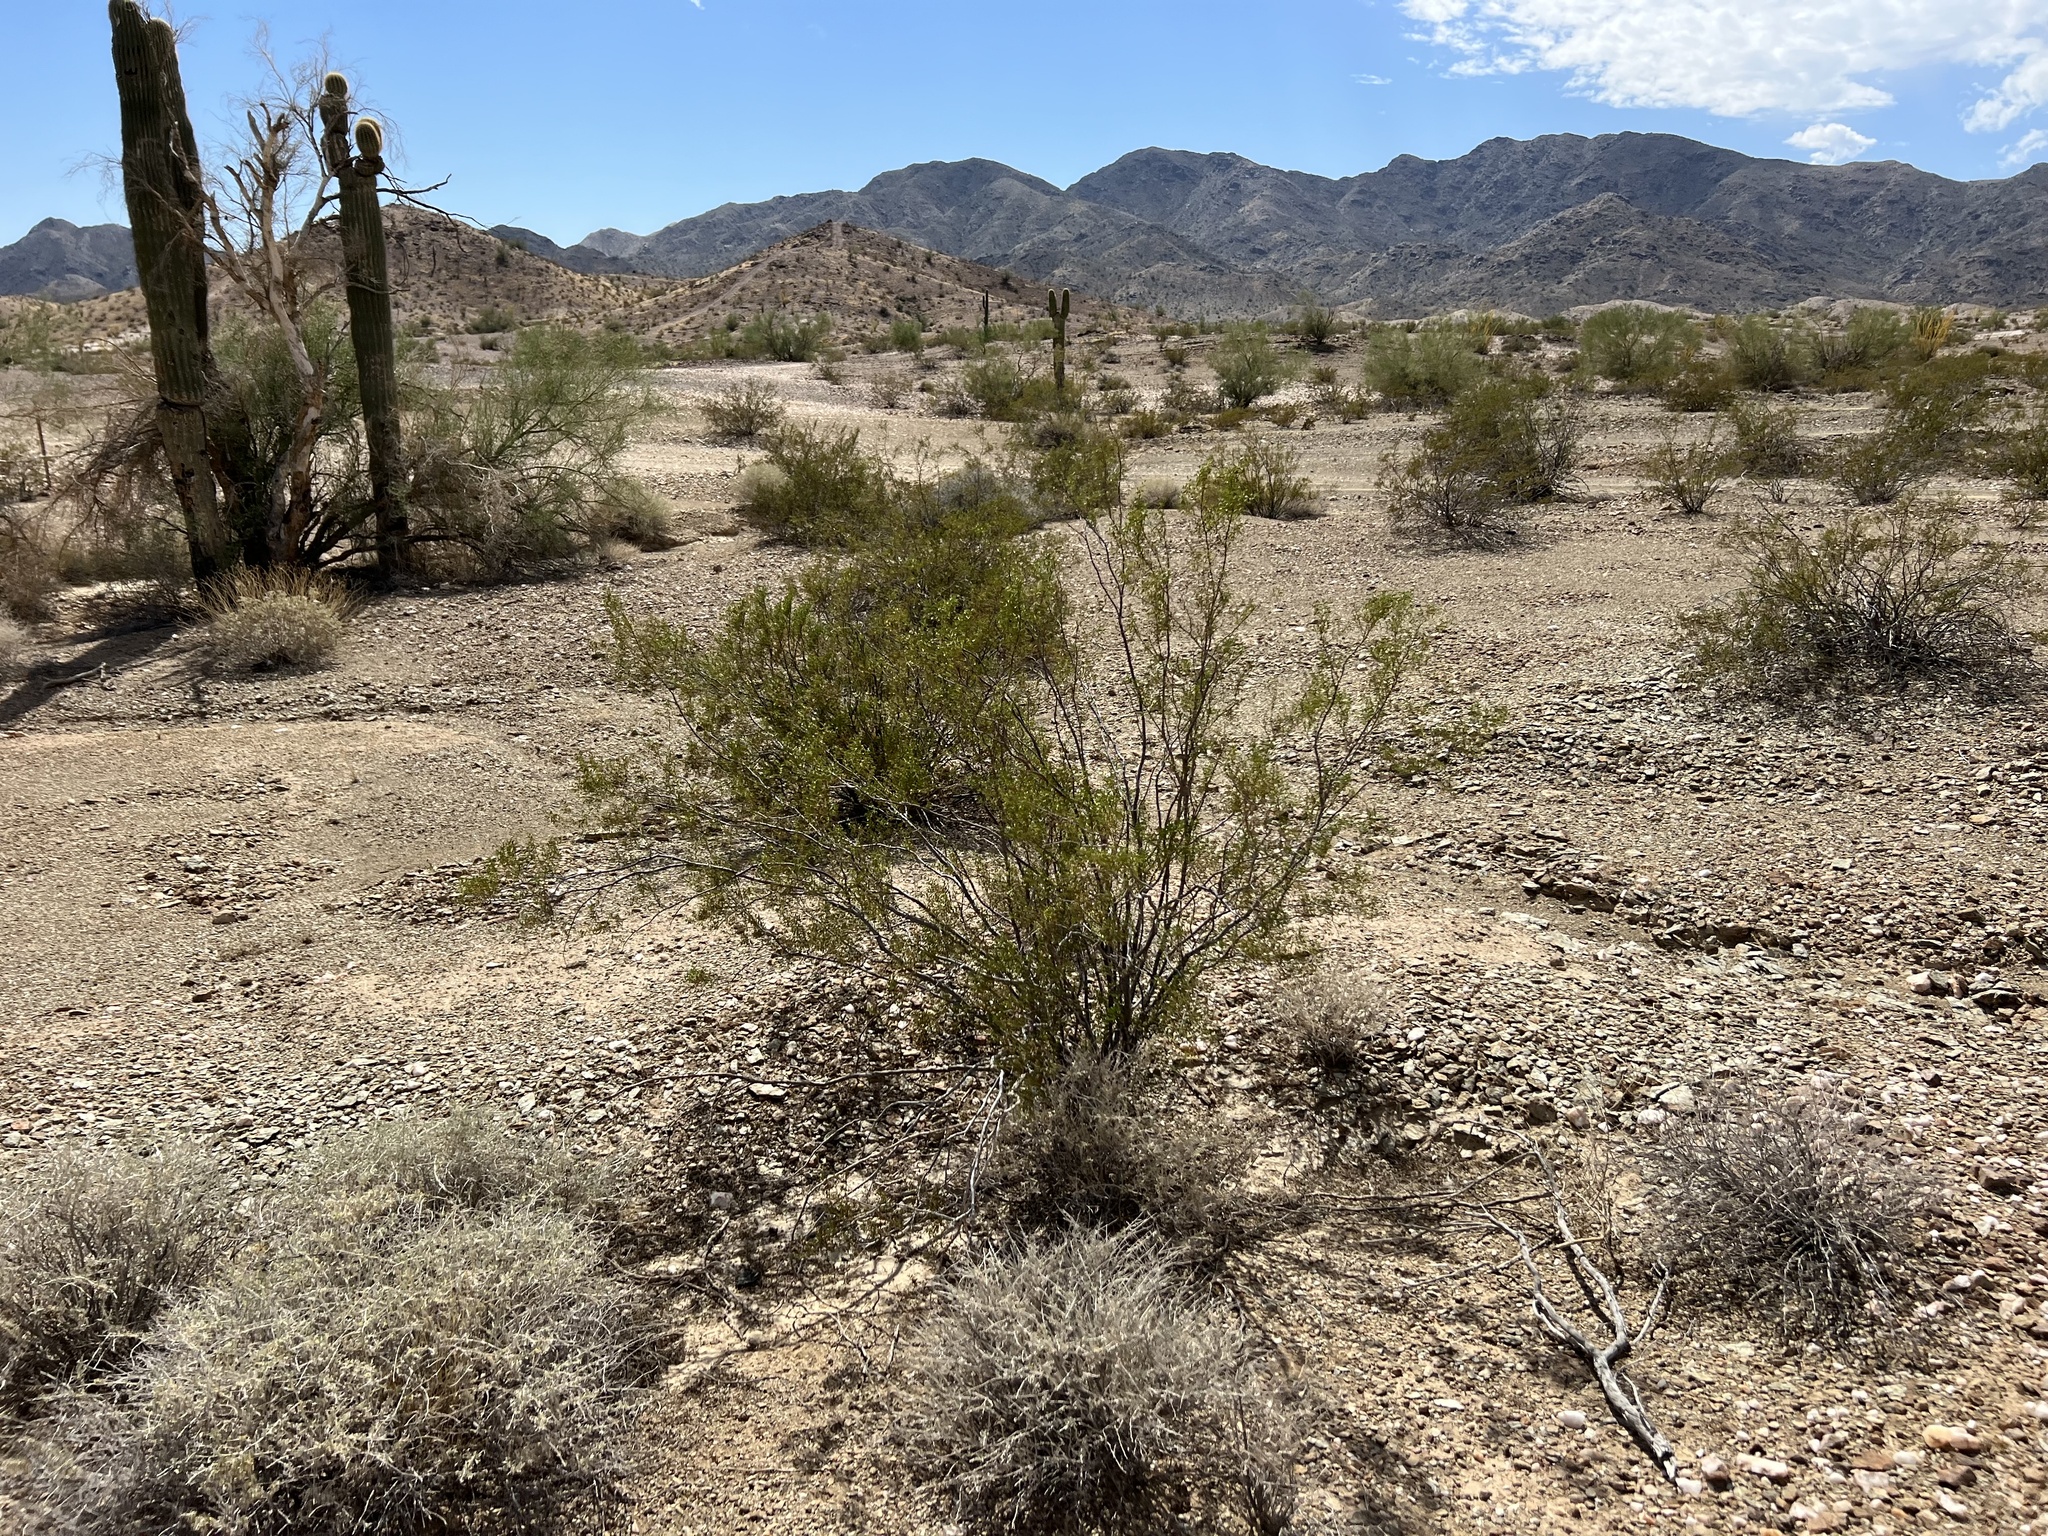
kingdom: Plantae
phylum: Tracheophyta
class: Magnoliopsida
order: Zygophyllales
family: Zygophyllaceae
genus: Larrea
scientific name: Larrea tridentata
